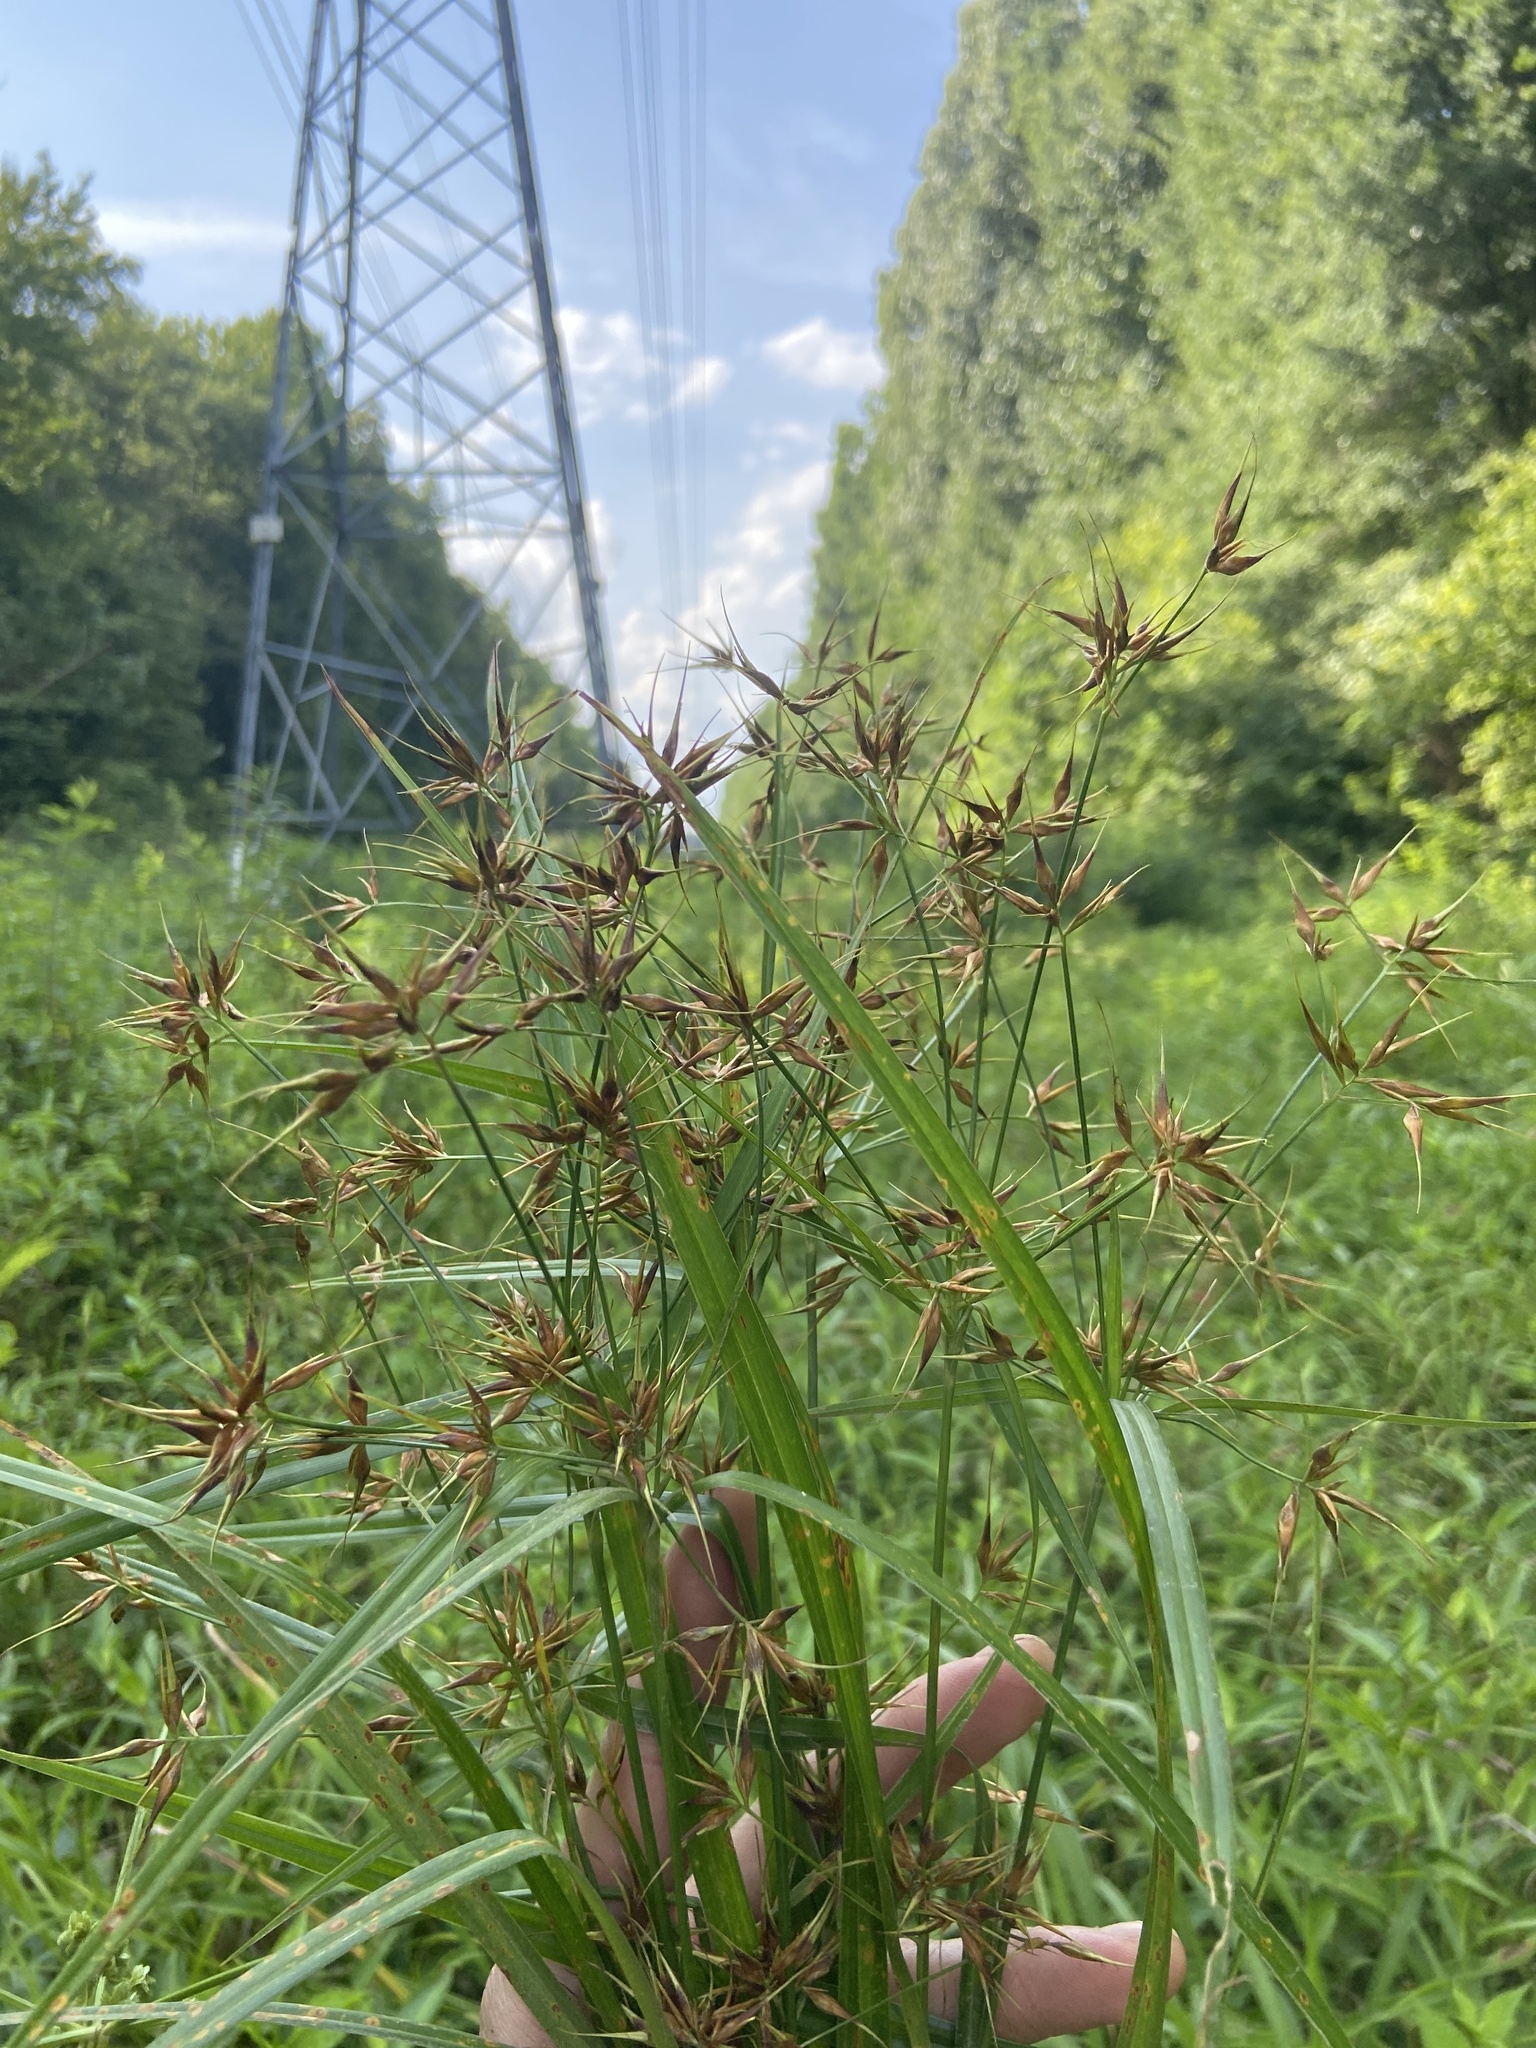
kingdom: Plantae
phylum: Tracheophyta
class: Liliopsida
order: Poales
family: Cyperaceae
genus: Rhynchospora
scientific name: Rhynchospora corniculata
